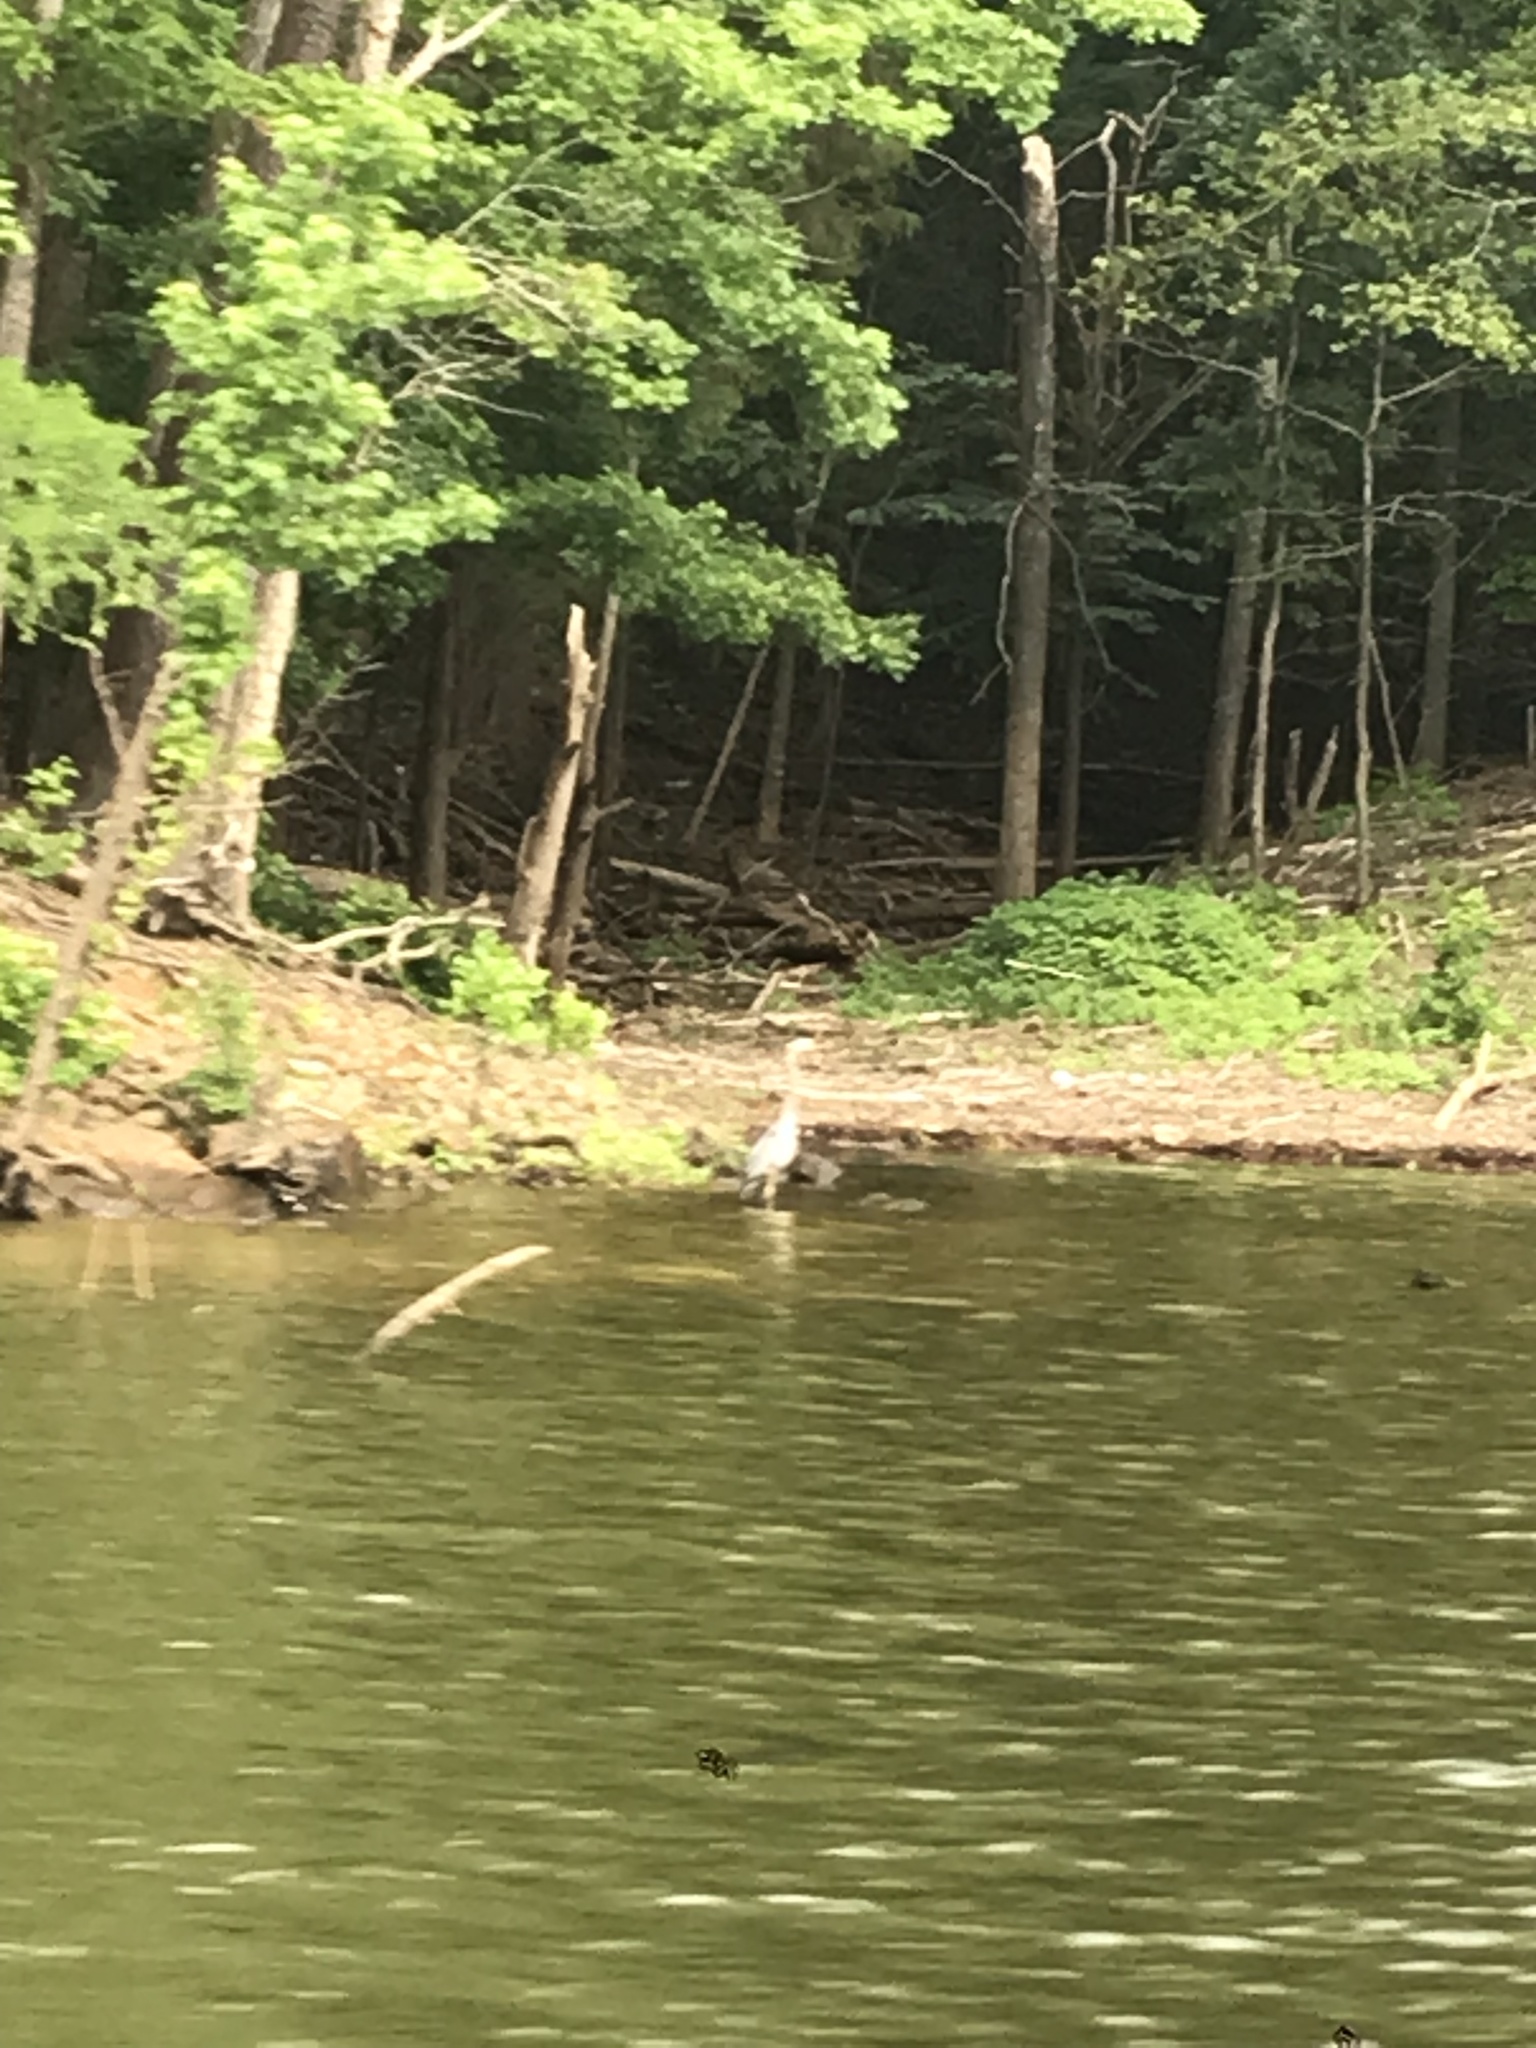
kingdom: Animalia
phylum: Chordata
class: Aves
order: Pelecaniformes
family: Ardeidae
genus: Ardea
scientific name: Ardea herodias
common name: Great blue heron
